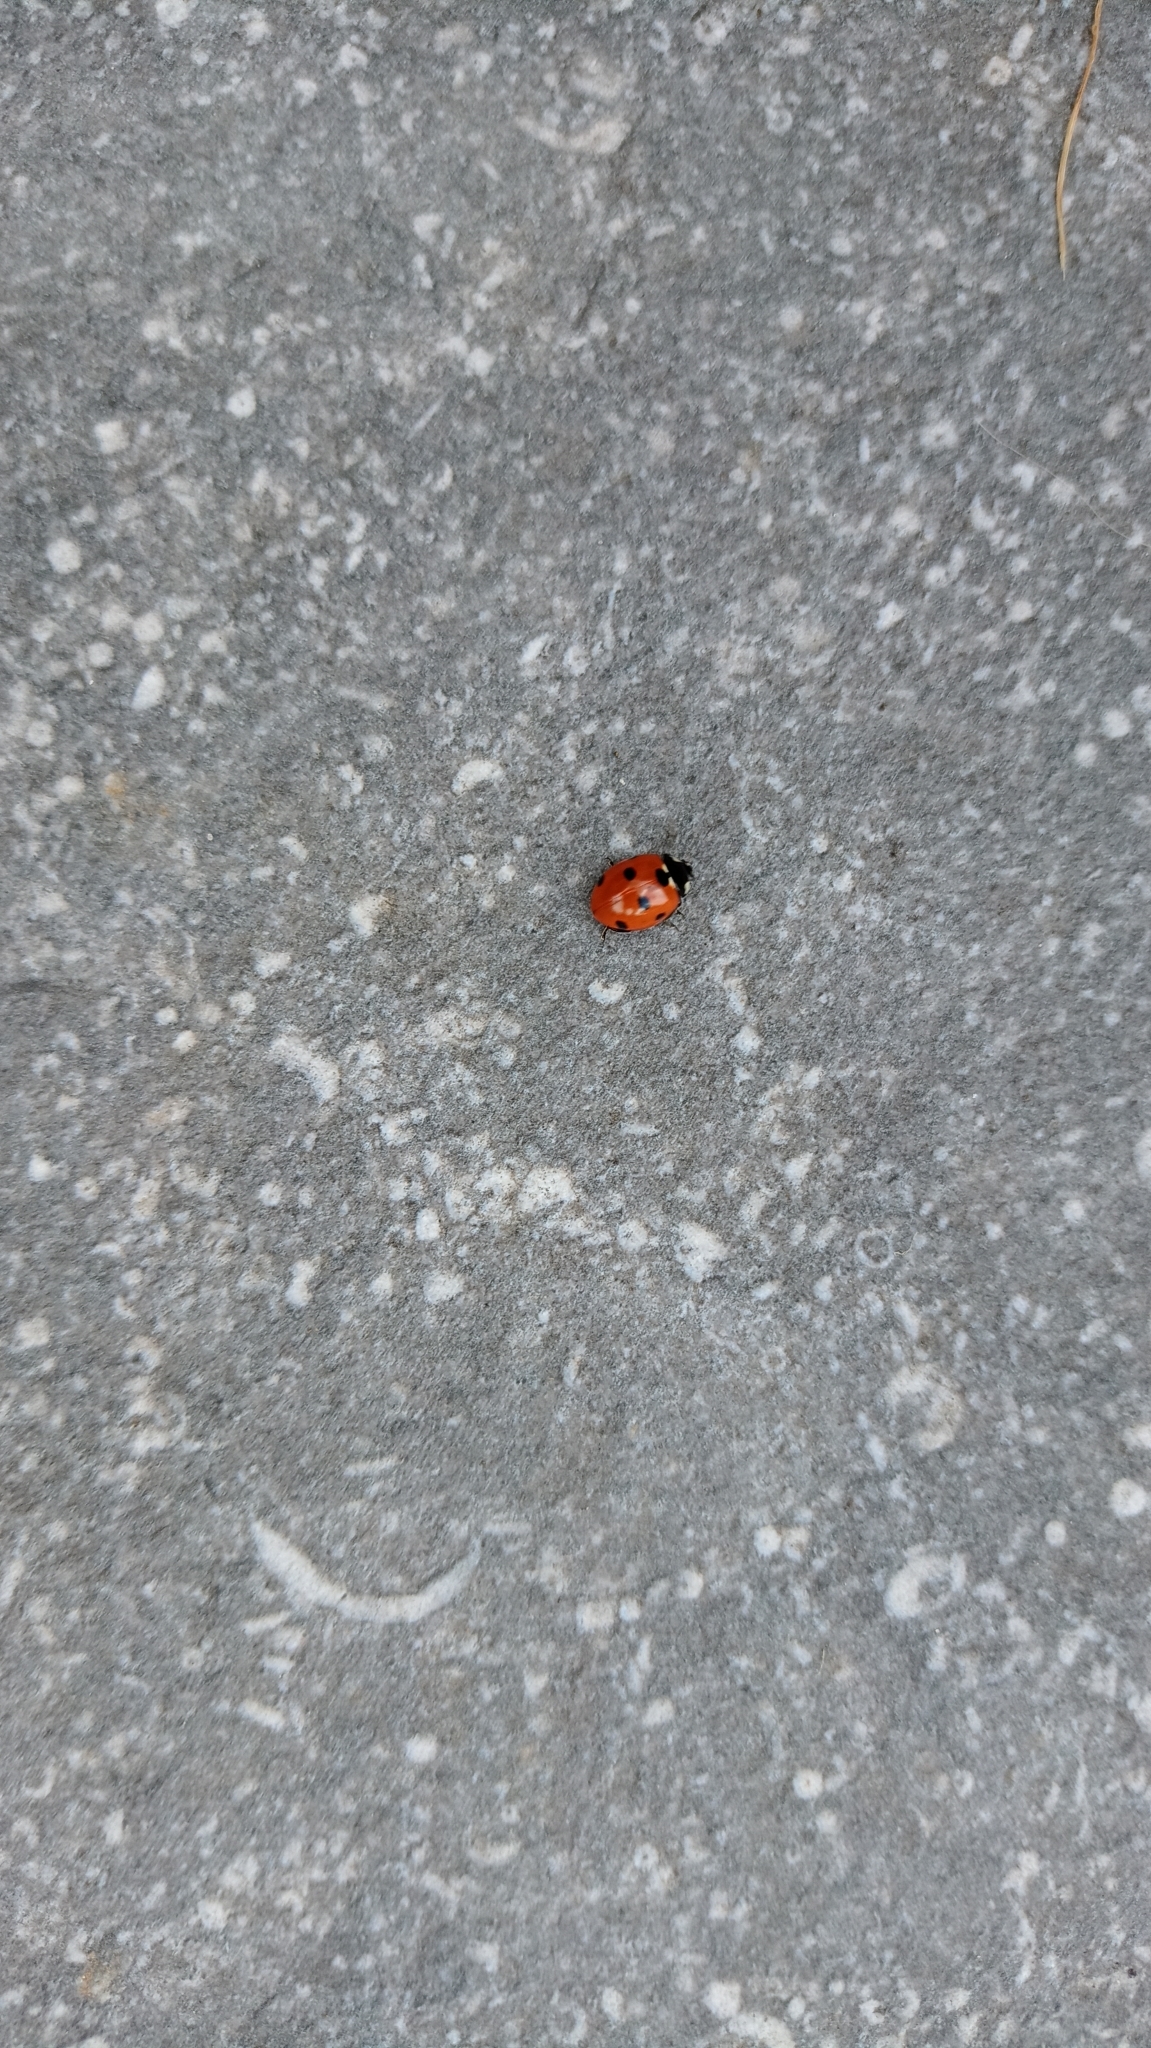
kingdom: Animalia
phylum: Arthropoda
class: Insecta
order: Coleoptera
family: Coccinellidae
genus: Coccinella
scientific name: Coccinella septempunctata
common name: Sevenspotted lady beetle
